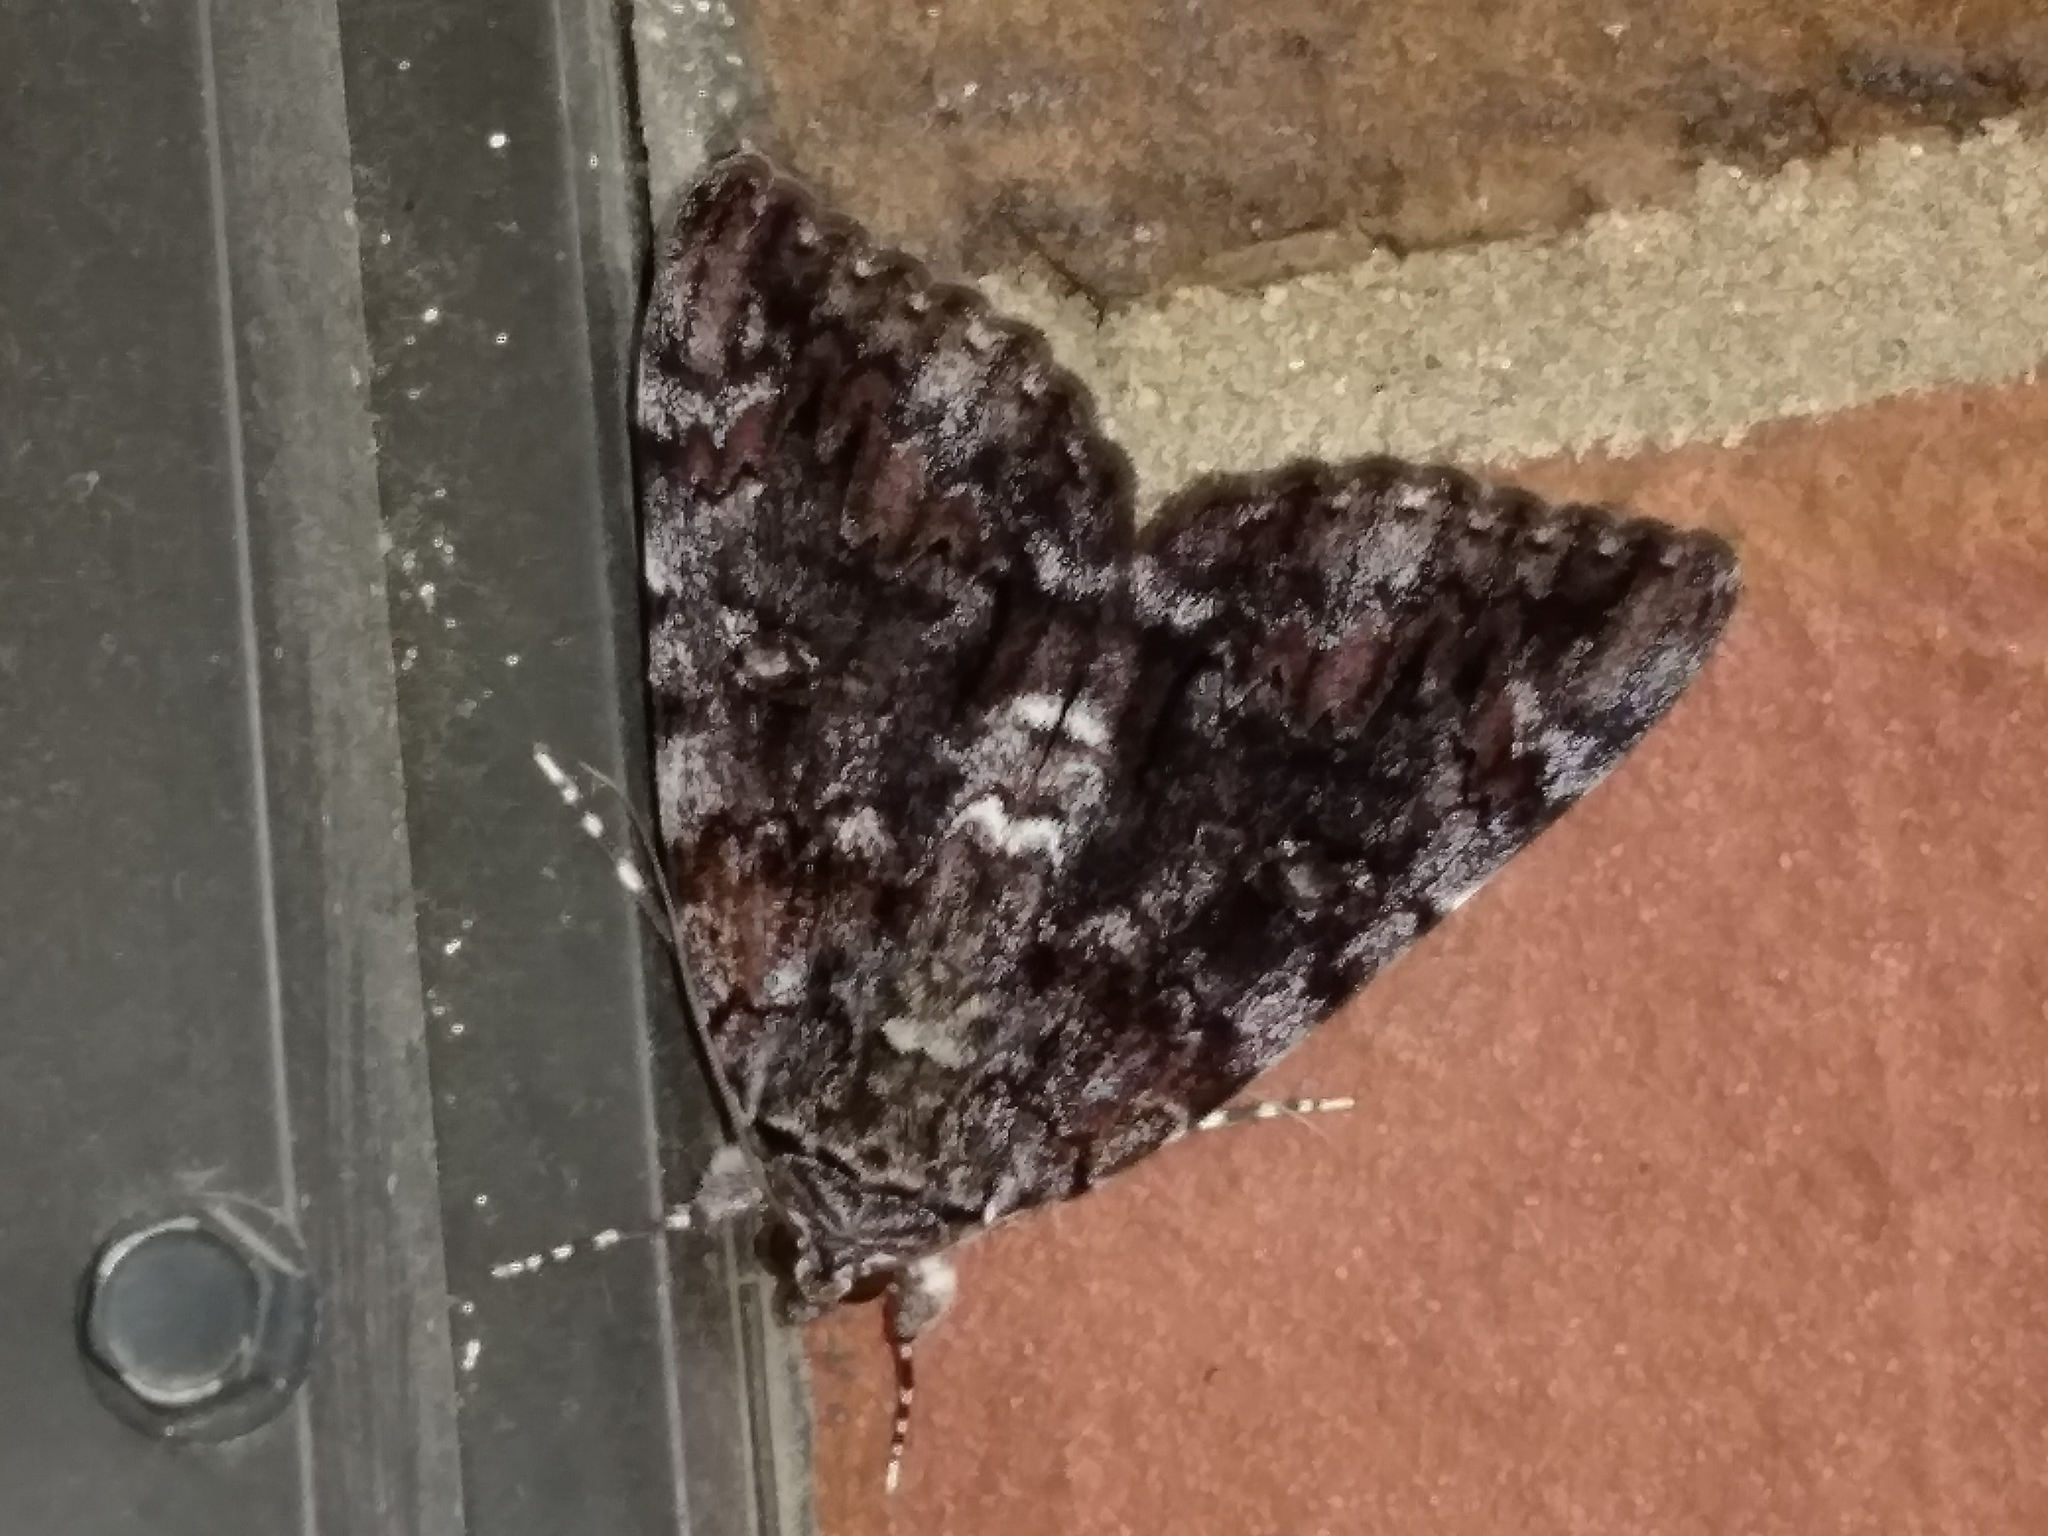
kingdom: Animalia
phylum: Arthropoda
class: Insecta
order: Lepidoptera
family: Erebidae
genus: Catocala
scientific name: Catocala lacrymosa
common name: Tearful underwing
